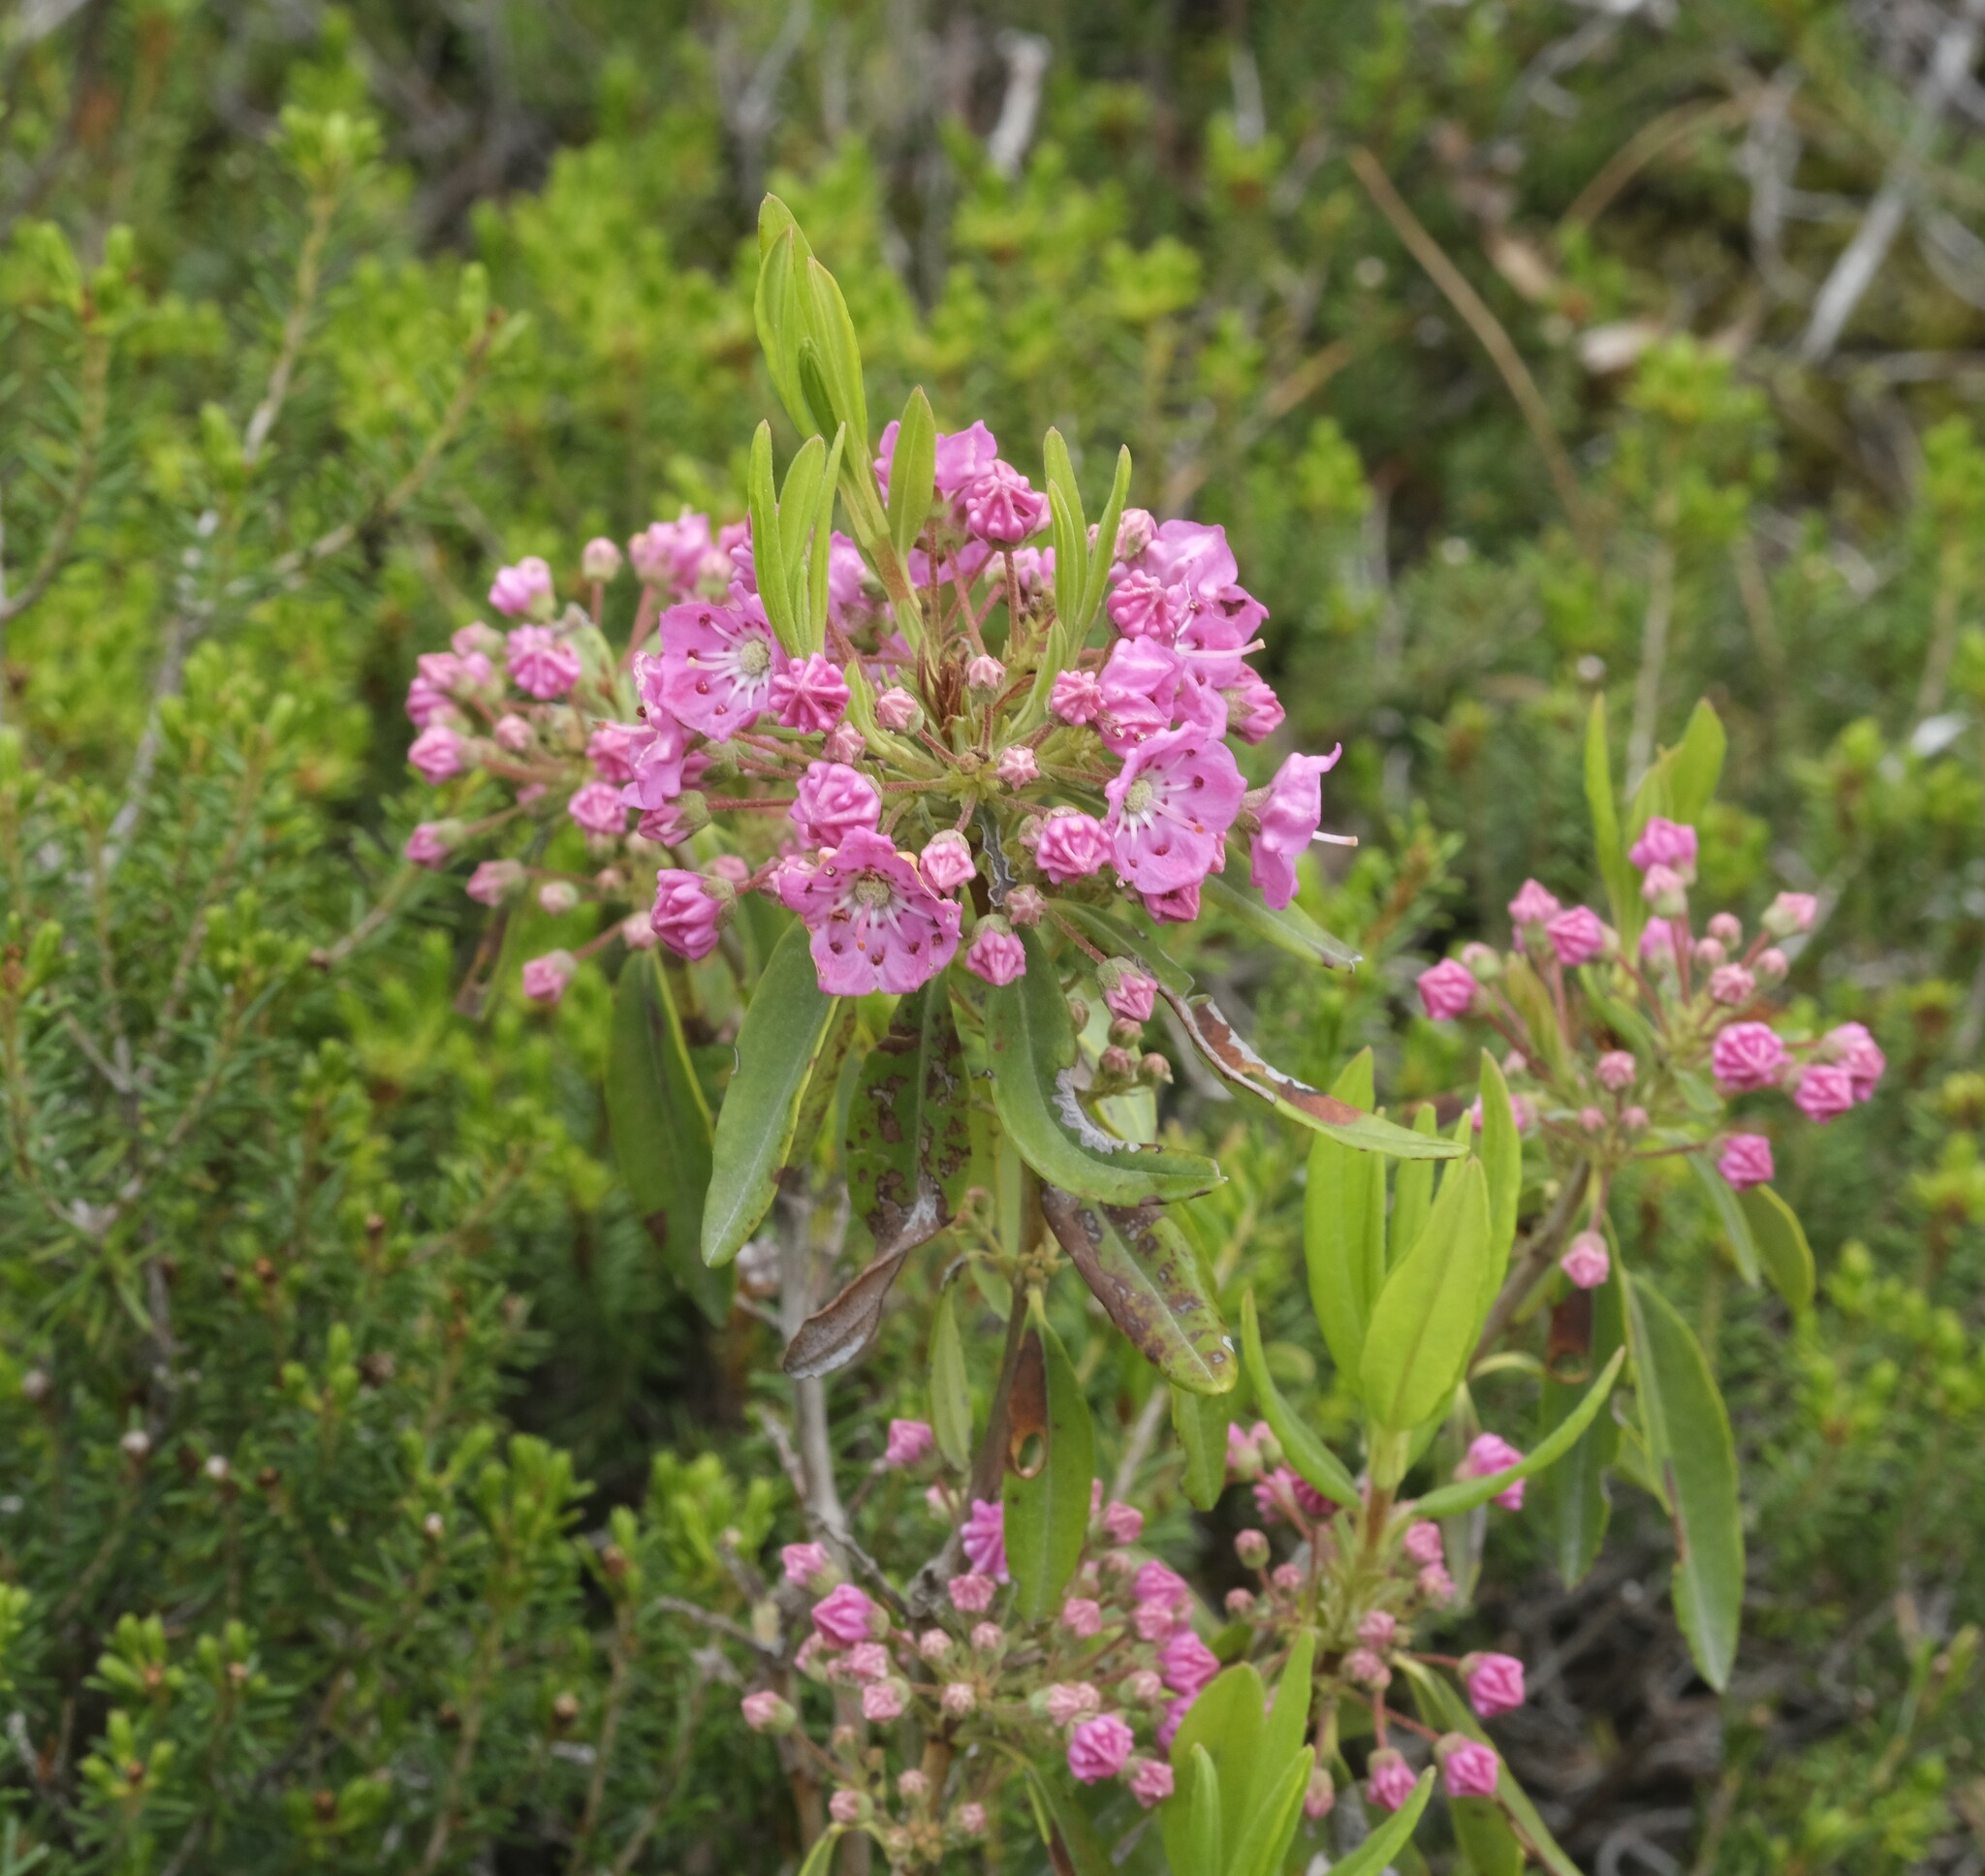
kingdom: Plantae
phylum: Tracheophyta
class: Magnoliopsida
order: Ericales
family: Ericaceae
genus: Kalmia
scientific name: Kalmia angustifolia
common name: Sheep-laurel
